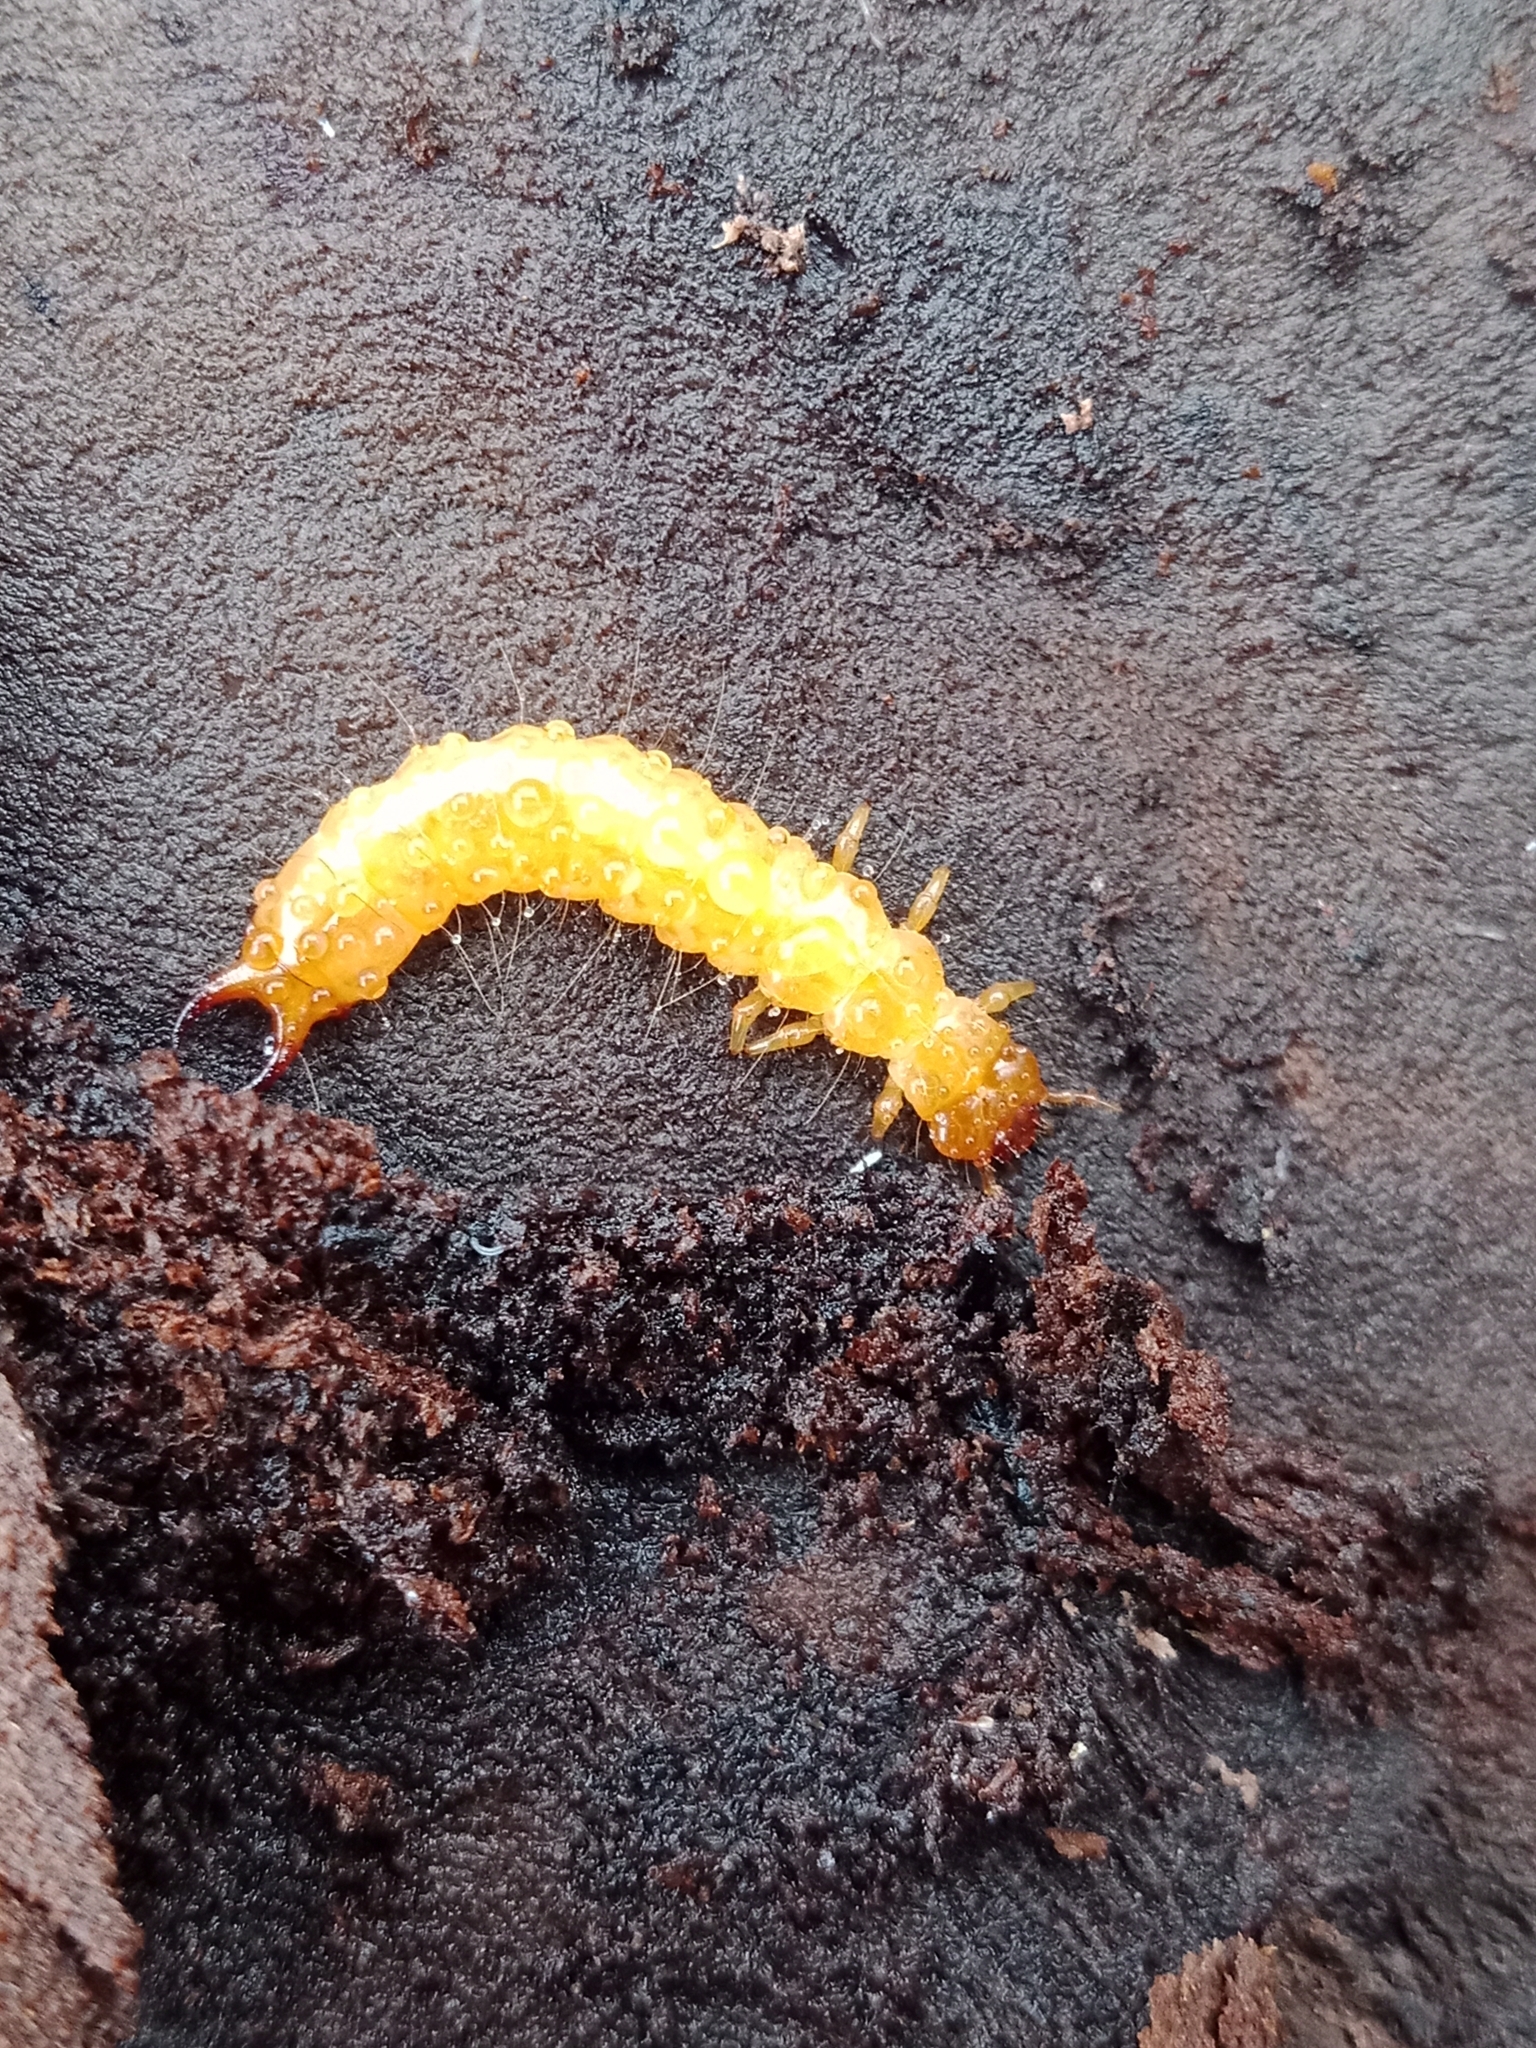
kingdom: Animalia
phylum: Arthropoda
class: Insecta
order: Coleoptera
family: Pyrochroidae
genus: Schizotus
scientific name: Schizotus pectinicornis
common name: Scarce cardinal beetle
